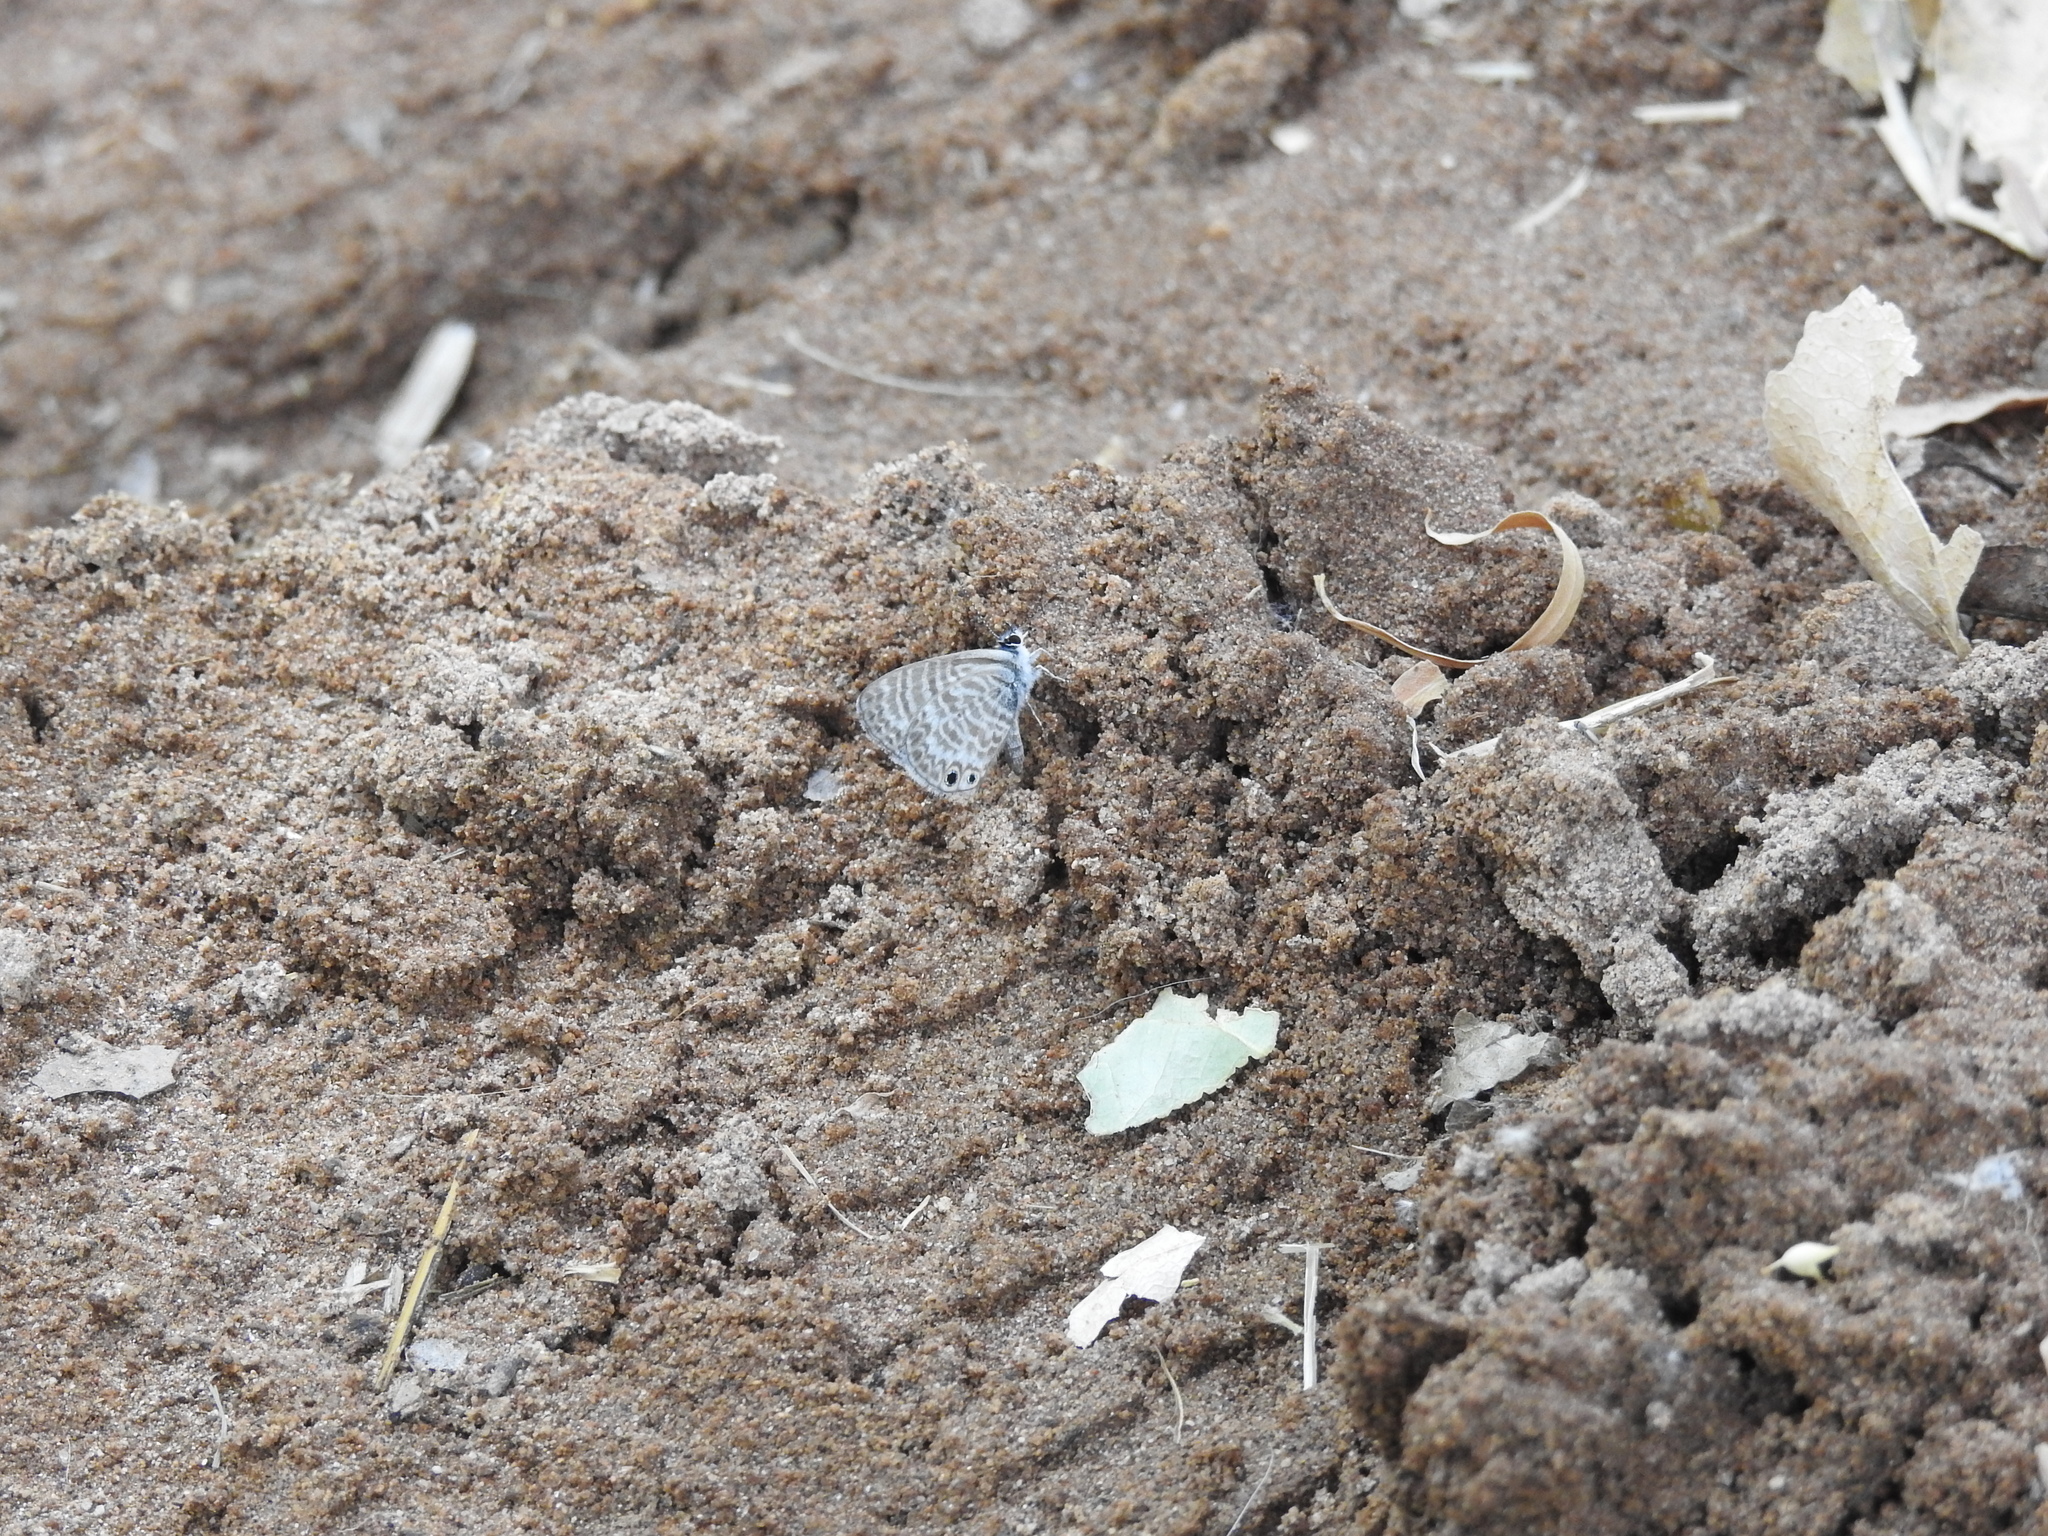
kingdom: Animalia
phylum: Arthropoda
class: Insecta
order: Lepidoptera
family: Lycaenidae
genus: Leptotes
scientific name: Leptotes marina
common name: Marine blue
